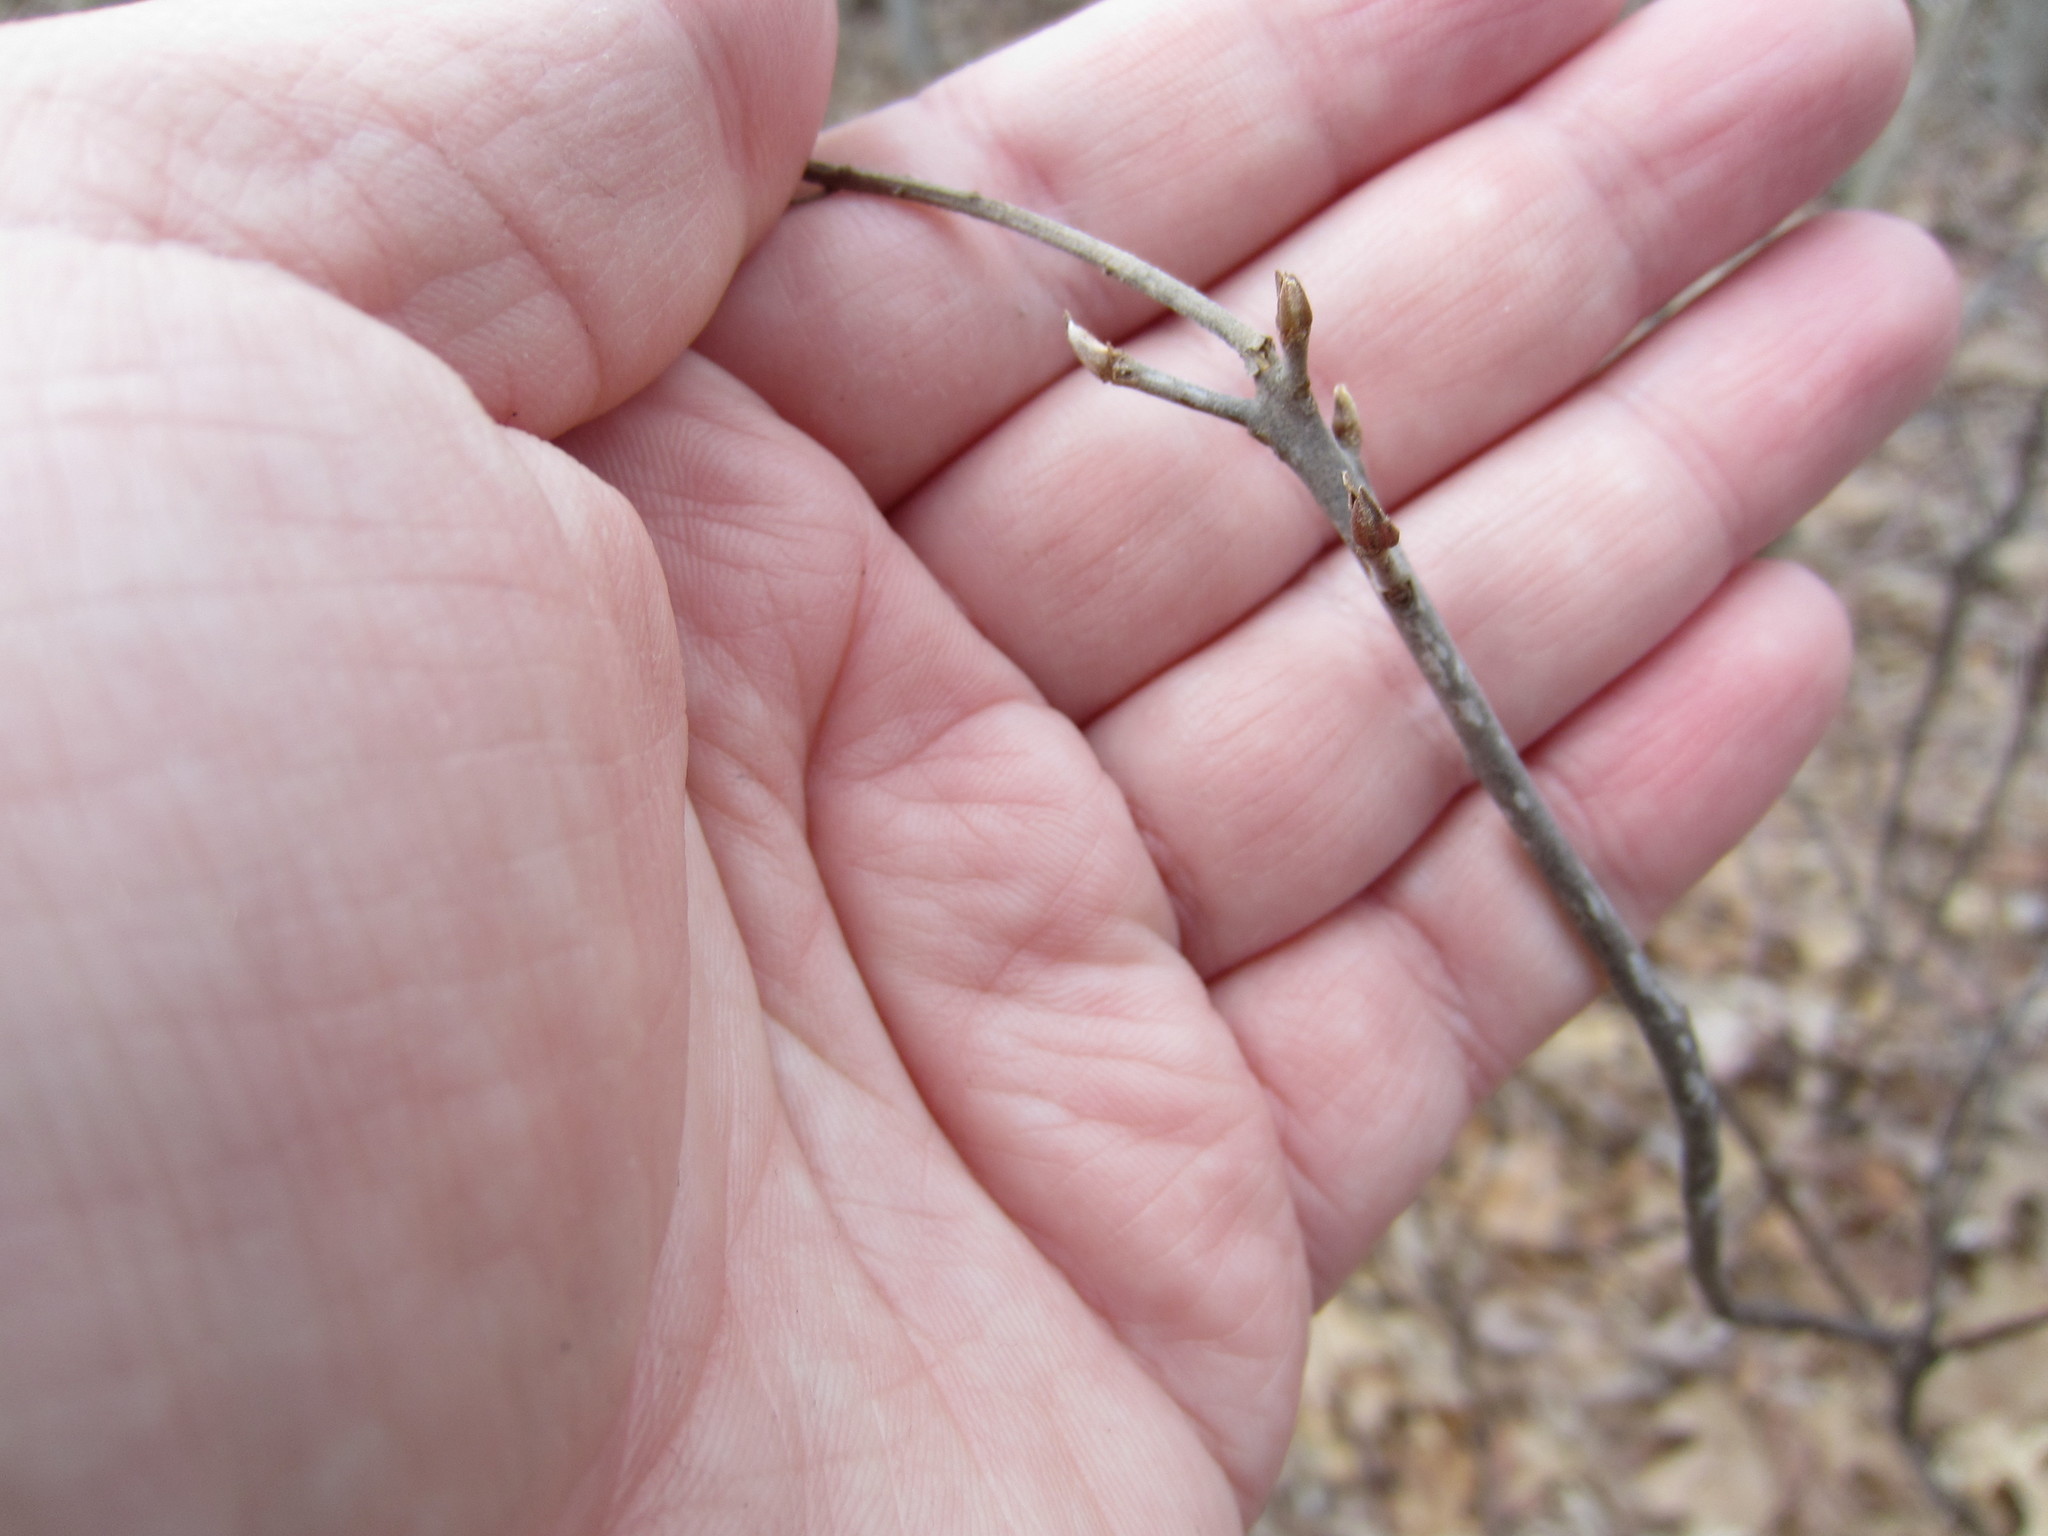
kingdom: Plantae
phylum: Tracheophyta
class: Magnoliopsida
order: Ericales
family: Clethraceae
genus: Clethra
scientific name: Clethra alnifolia
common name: Sweet pepperbush
